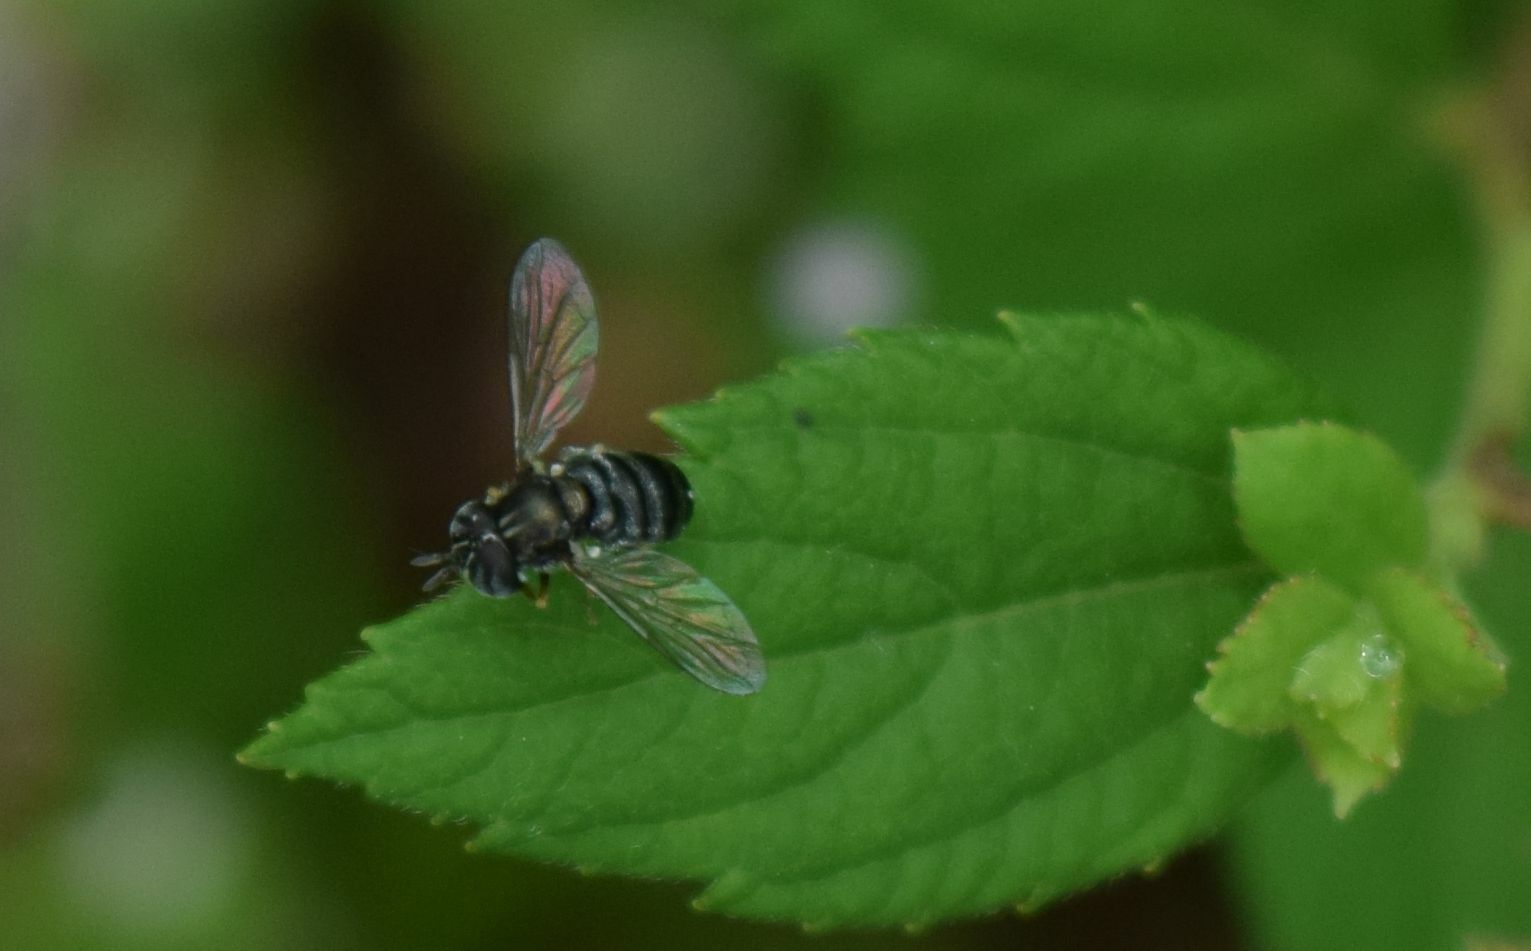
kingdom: Animalia
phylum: Arthropoda
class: Insecta
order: Diptera
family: Syrphidae
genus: Paragus
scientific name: Paragus
